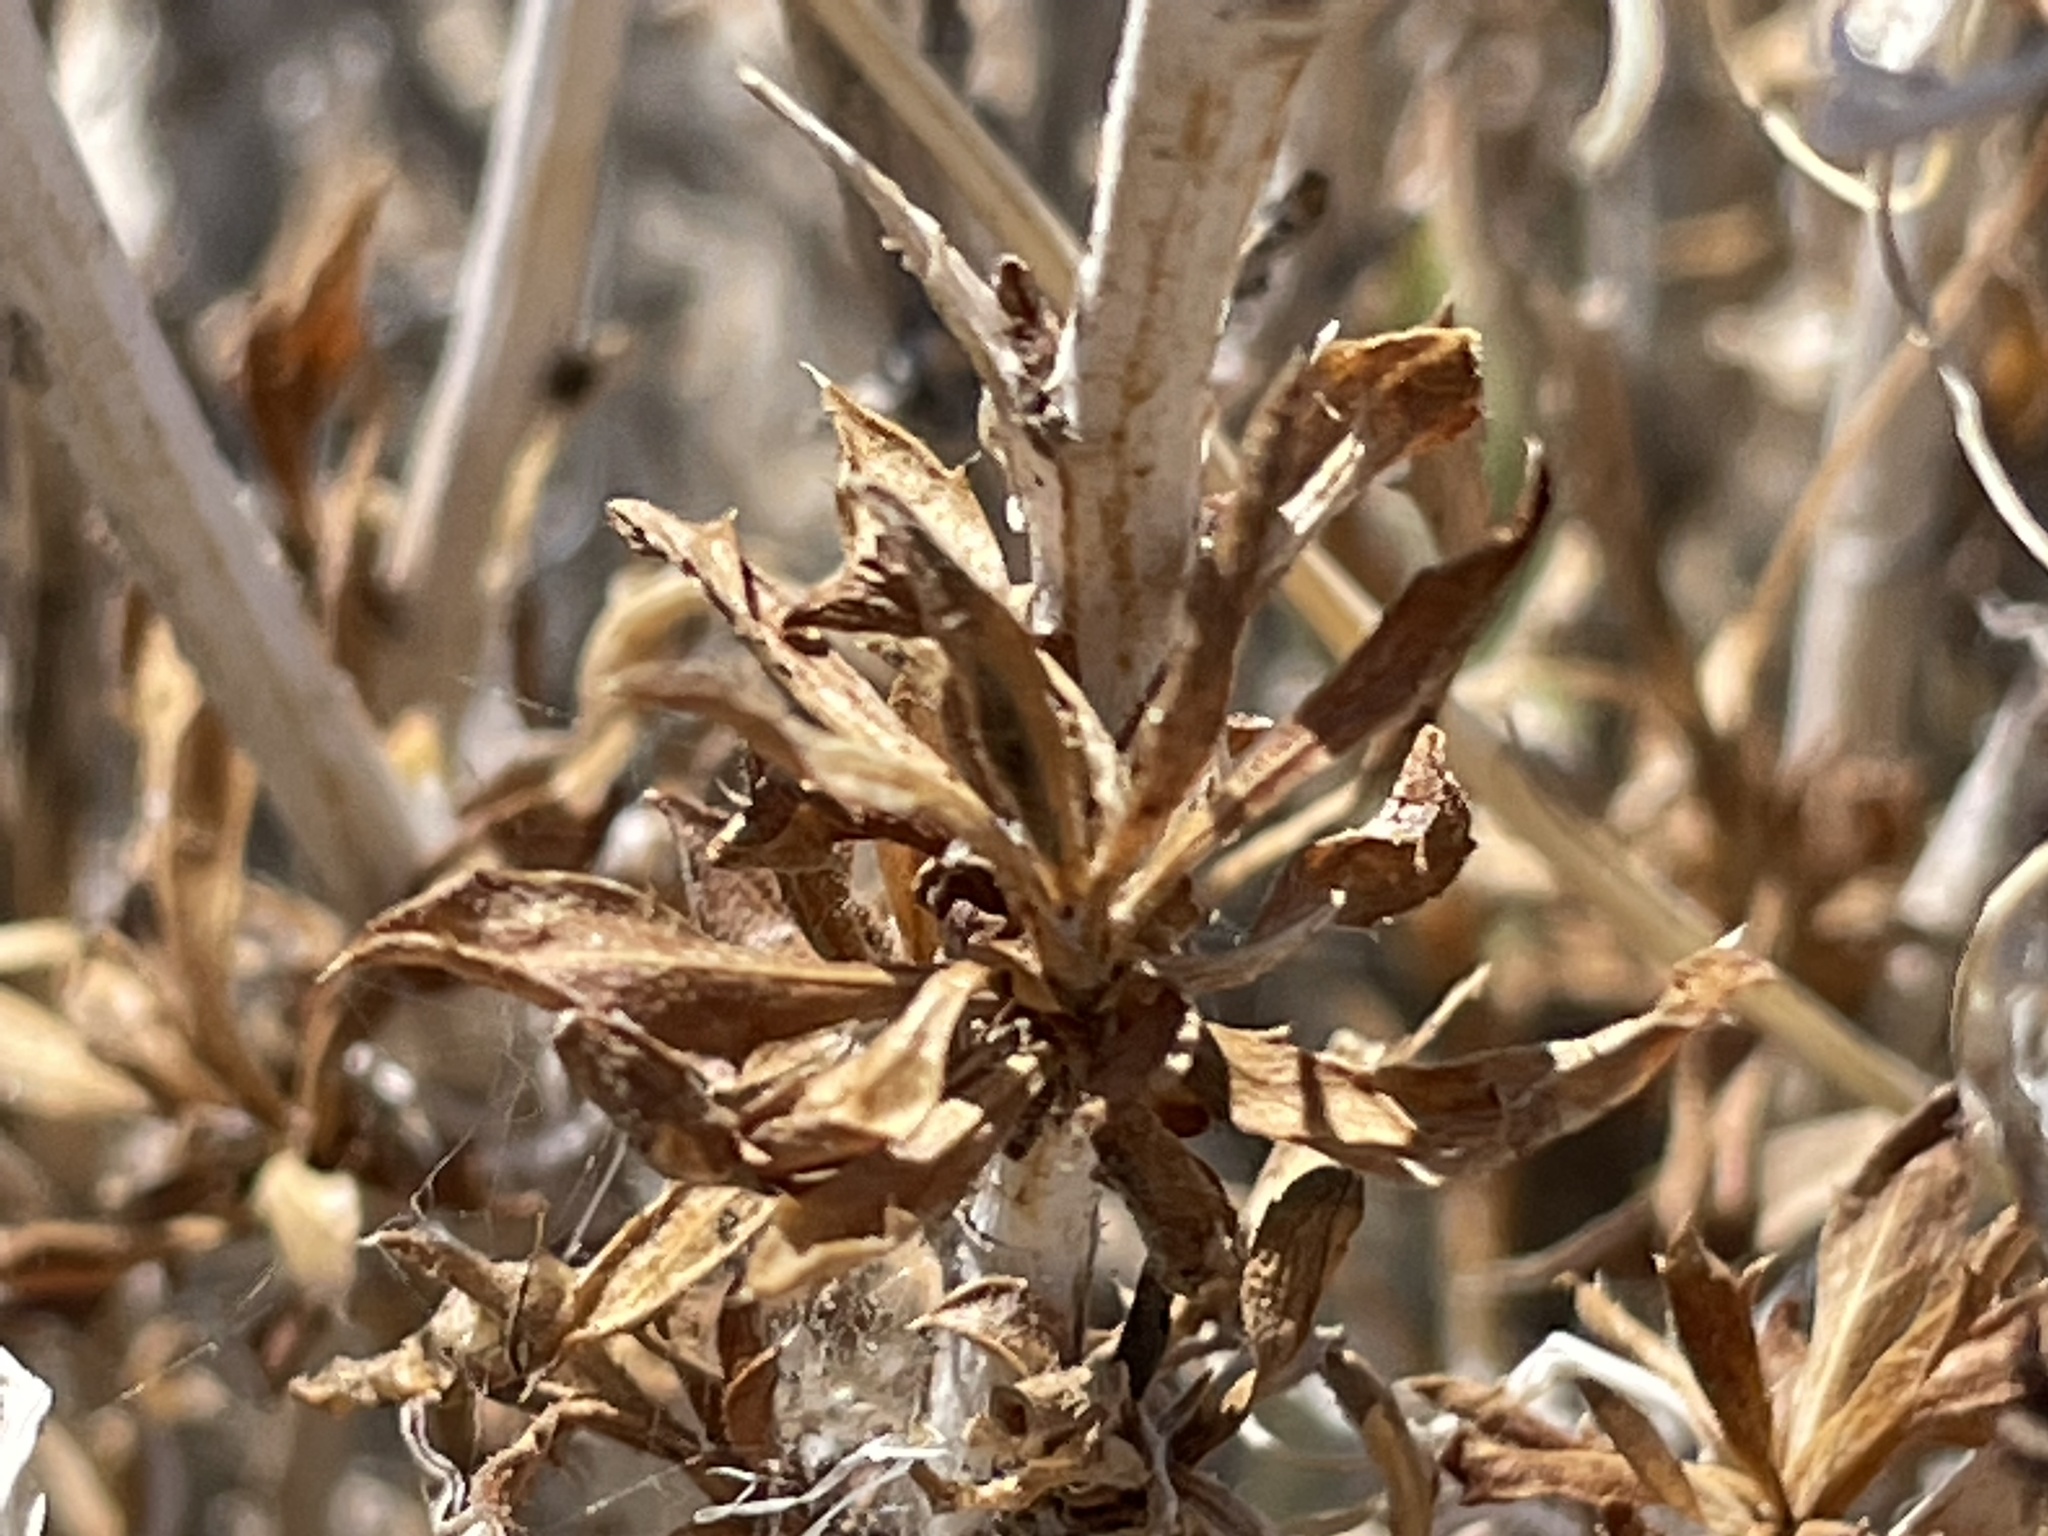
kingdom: Plantae
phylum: Tracheophyta
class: Magnoliopsida
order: Asterales
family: Asteraceae
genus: Xylorhiza
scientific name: Xylorhiza tortifolia
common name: Hurt-leaf woody-aster
